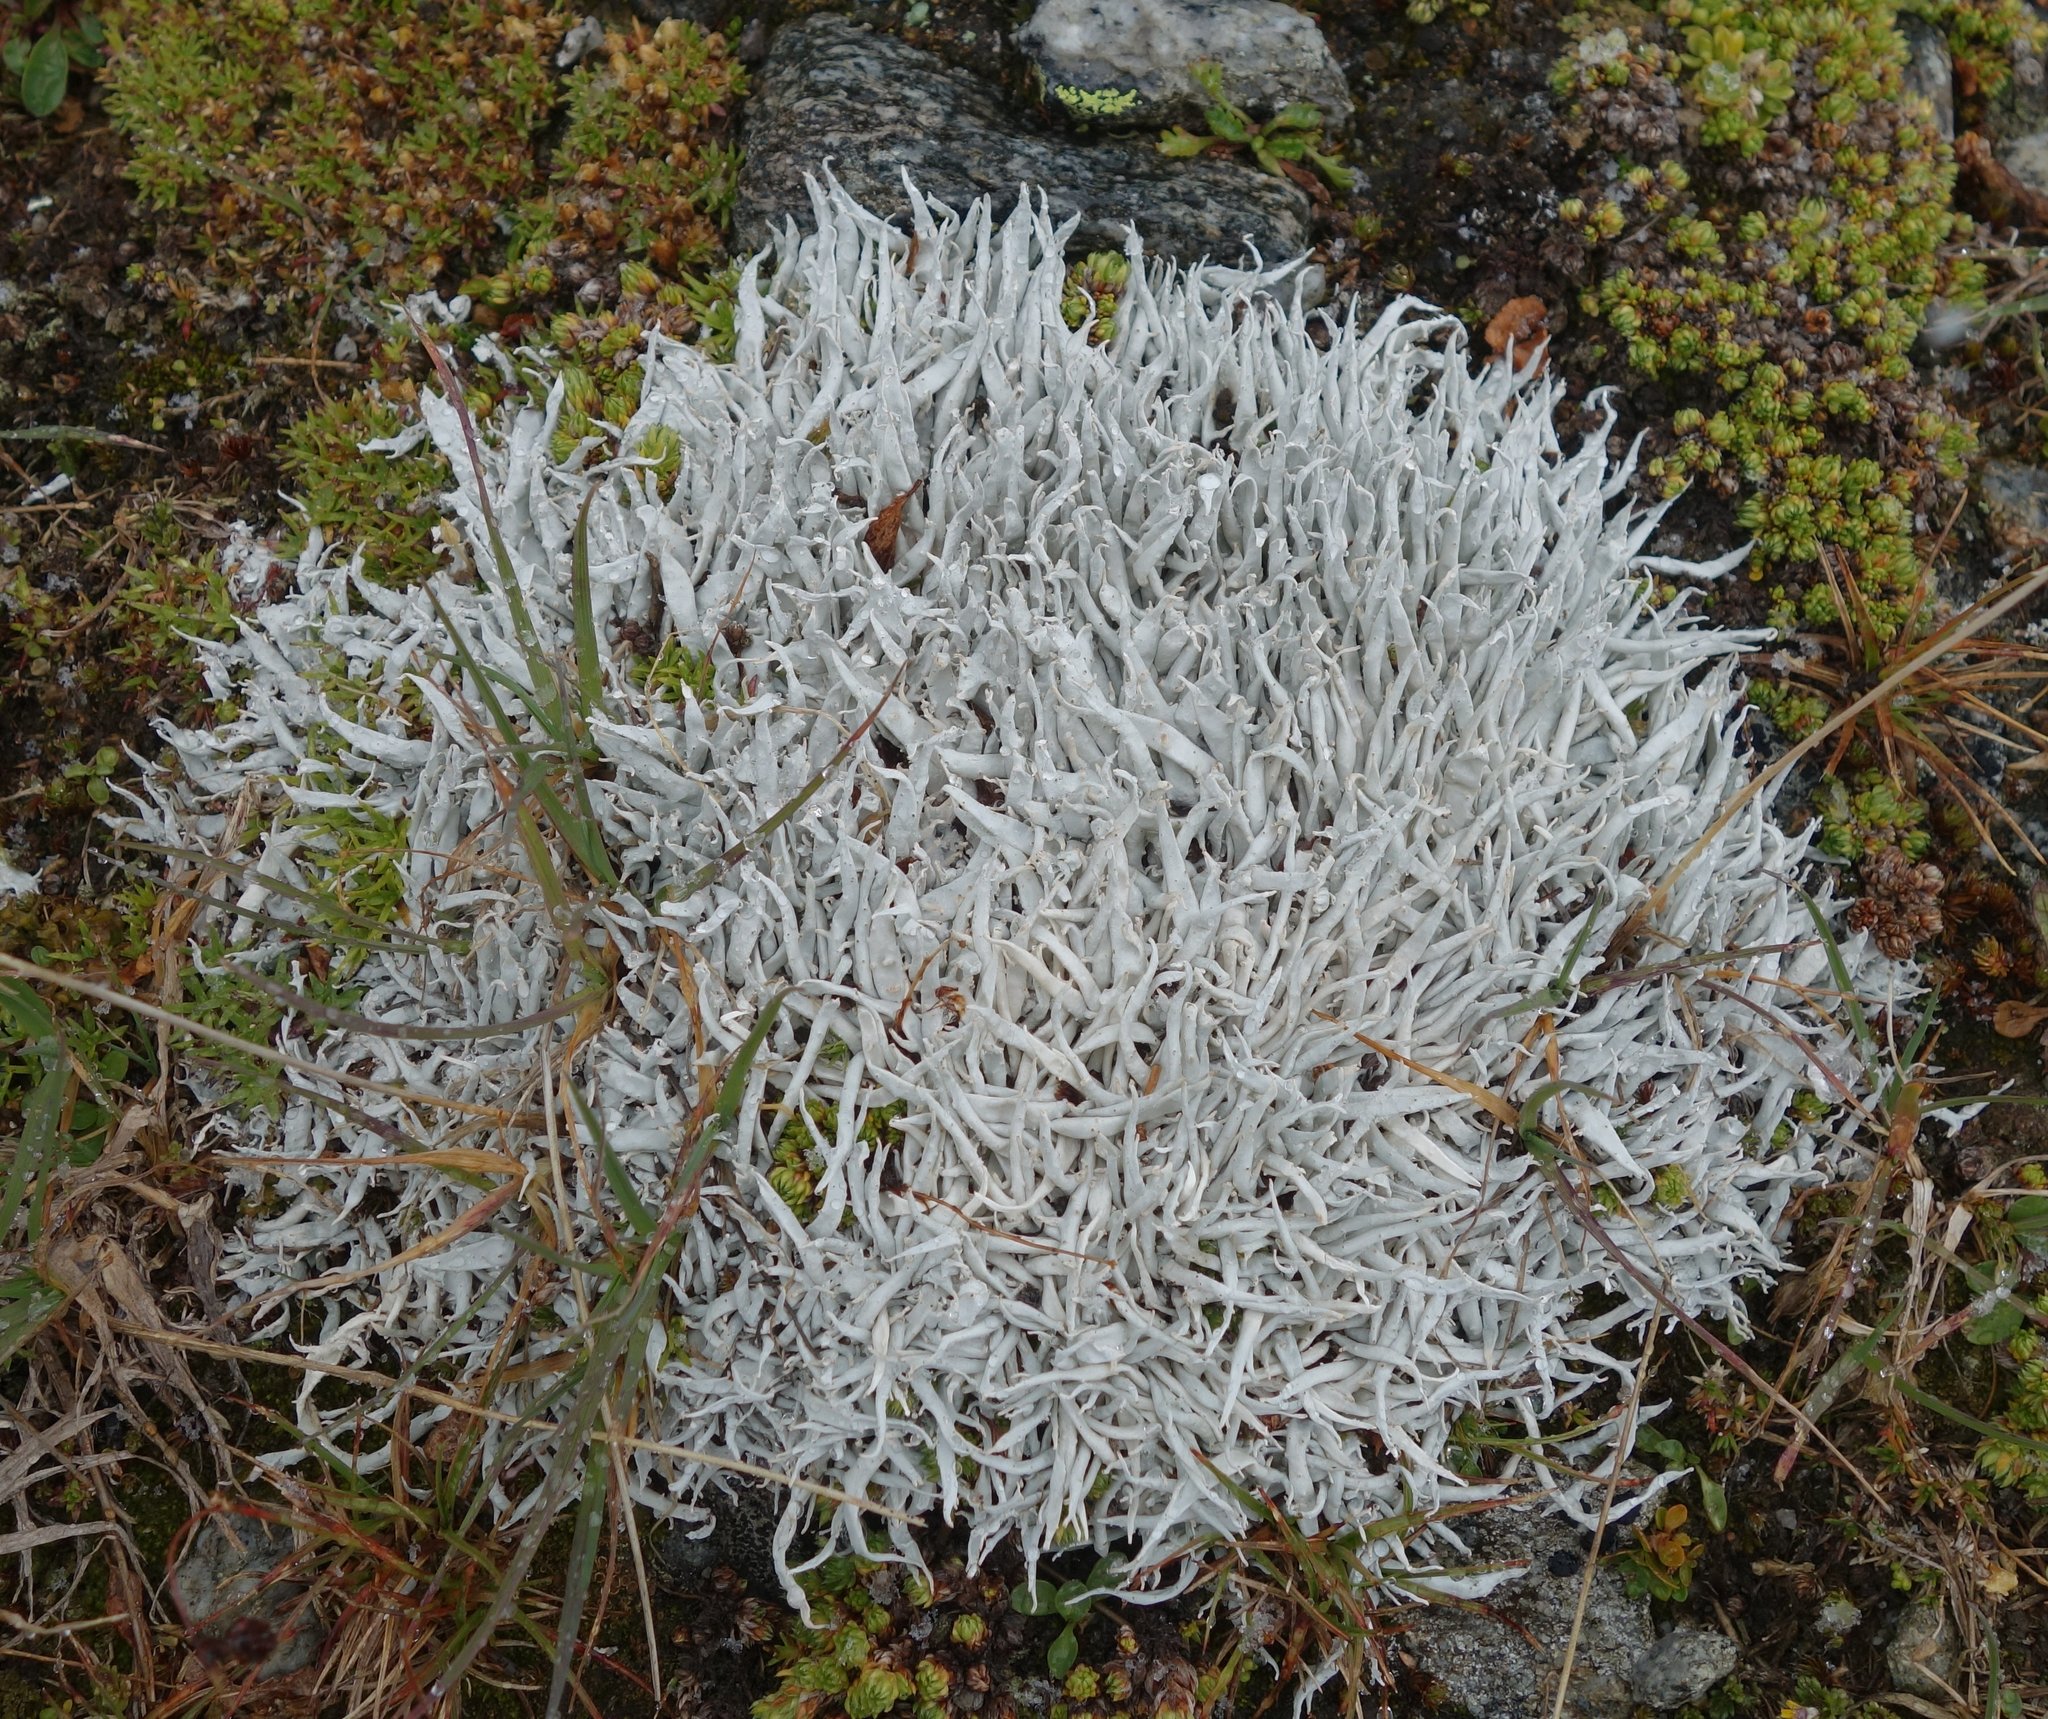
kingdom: Fungi
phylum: Ascomycota
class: Lecanoromycetes
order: Pertusariales
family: Icmadophilaceae
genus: Thamnolia
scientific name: Thamnolia vermicularis
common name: Whiteworm lichen
